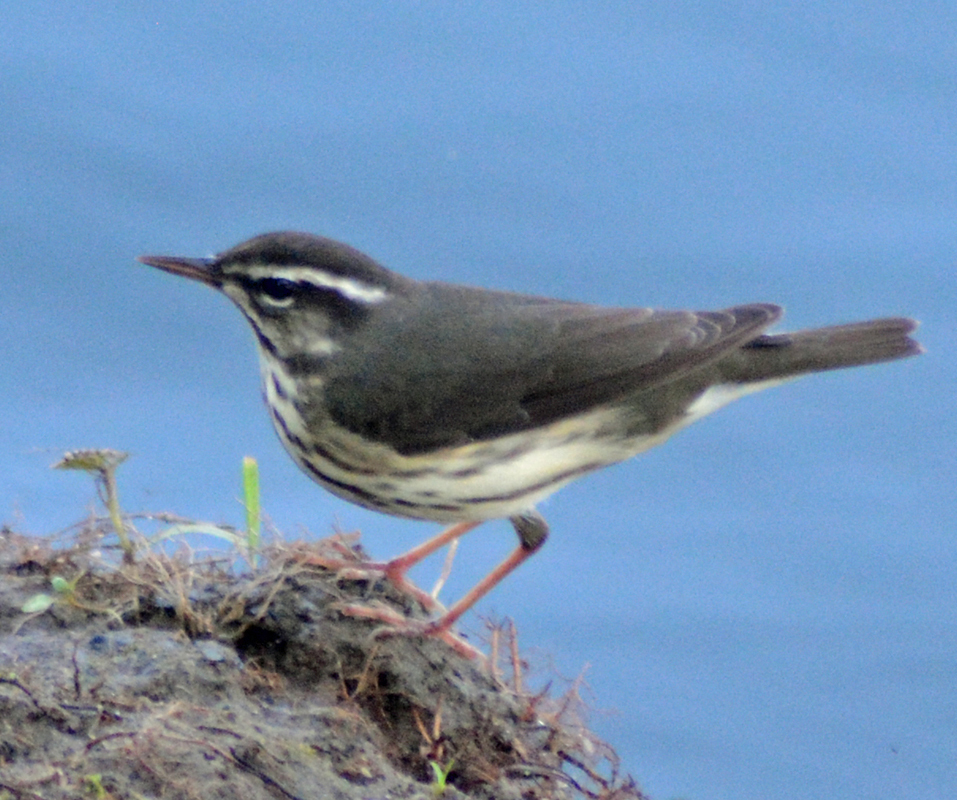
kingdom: Animalia
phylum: Chordata
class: Aves
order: Passeriformes
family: Parulidae
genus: Parkesia
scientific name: Parkesia motacilla
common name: Louisiana waterthrush
